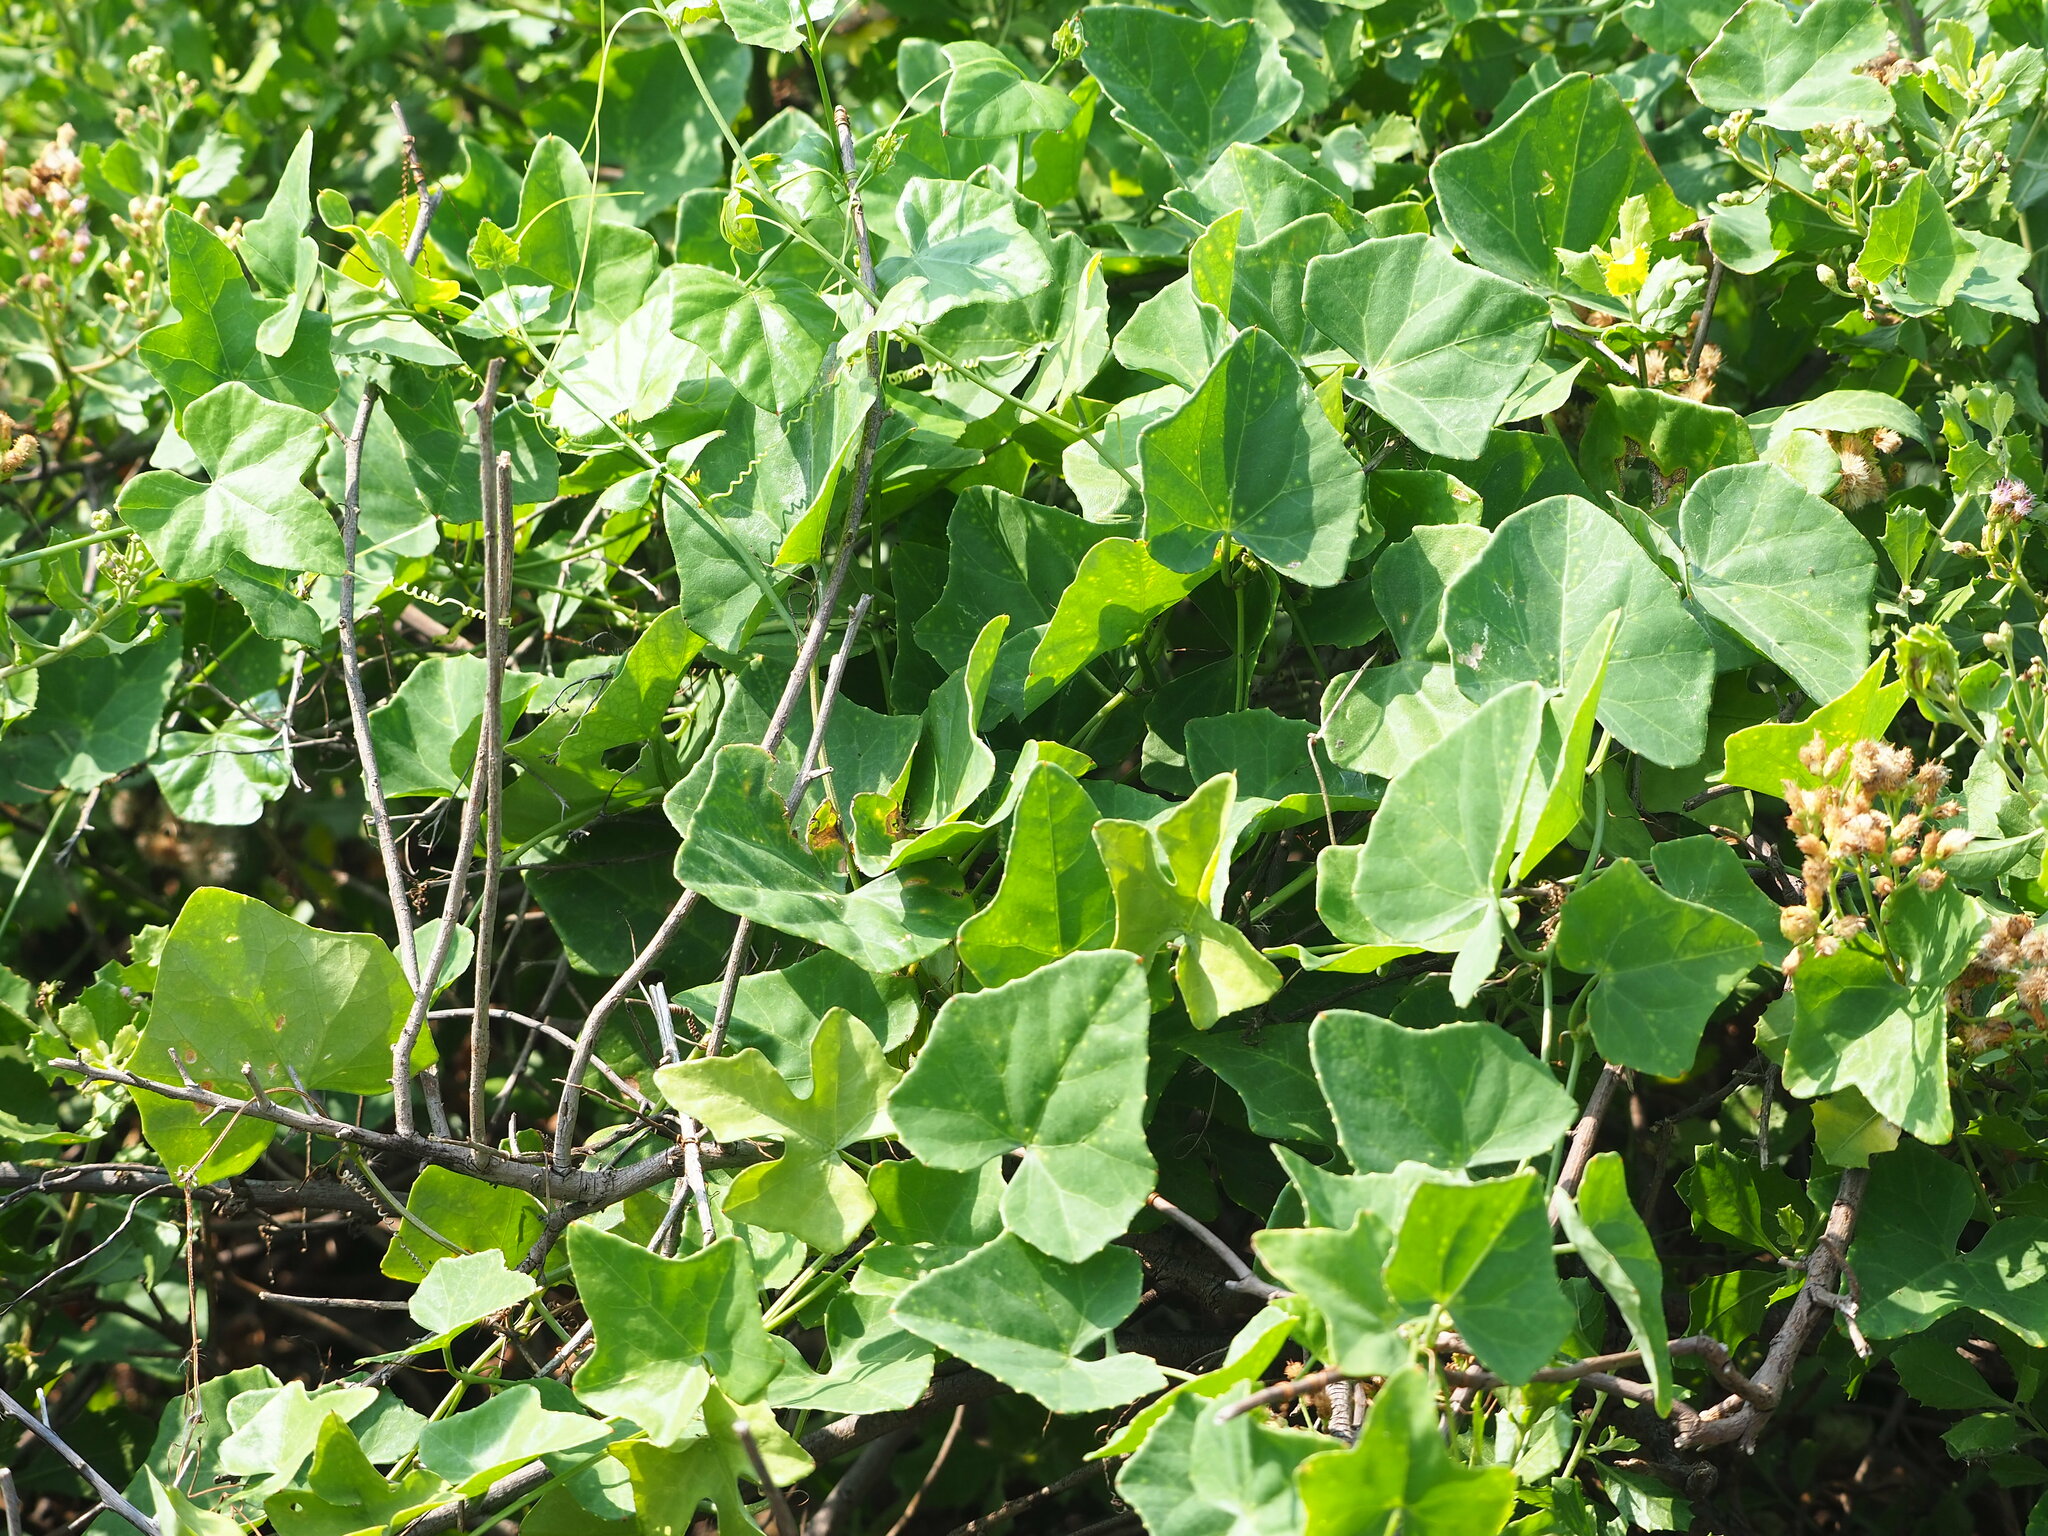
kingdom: Plantae
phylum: Tracheophyta
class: Magnoliopsida
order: Cucurbitales
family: Cucurbitaceae
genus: Coccinia
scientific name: Coccinia grandis
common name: Ivy gourd
